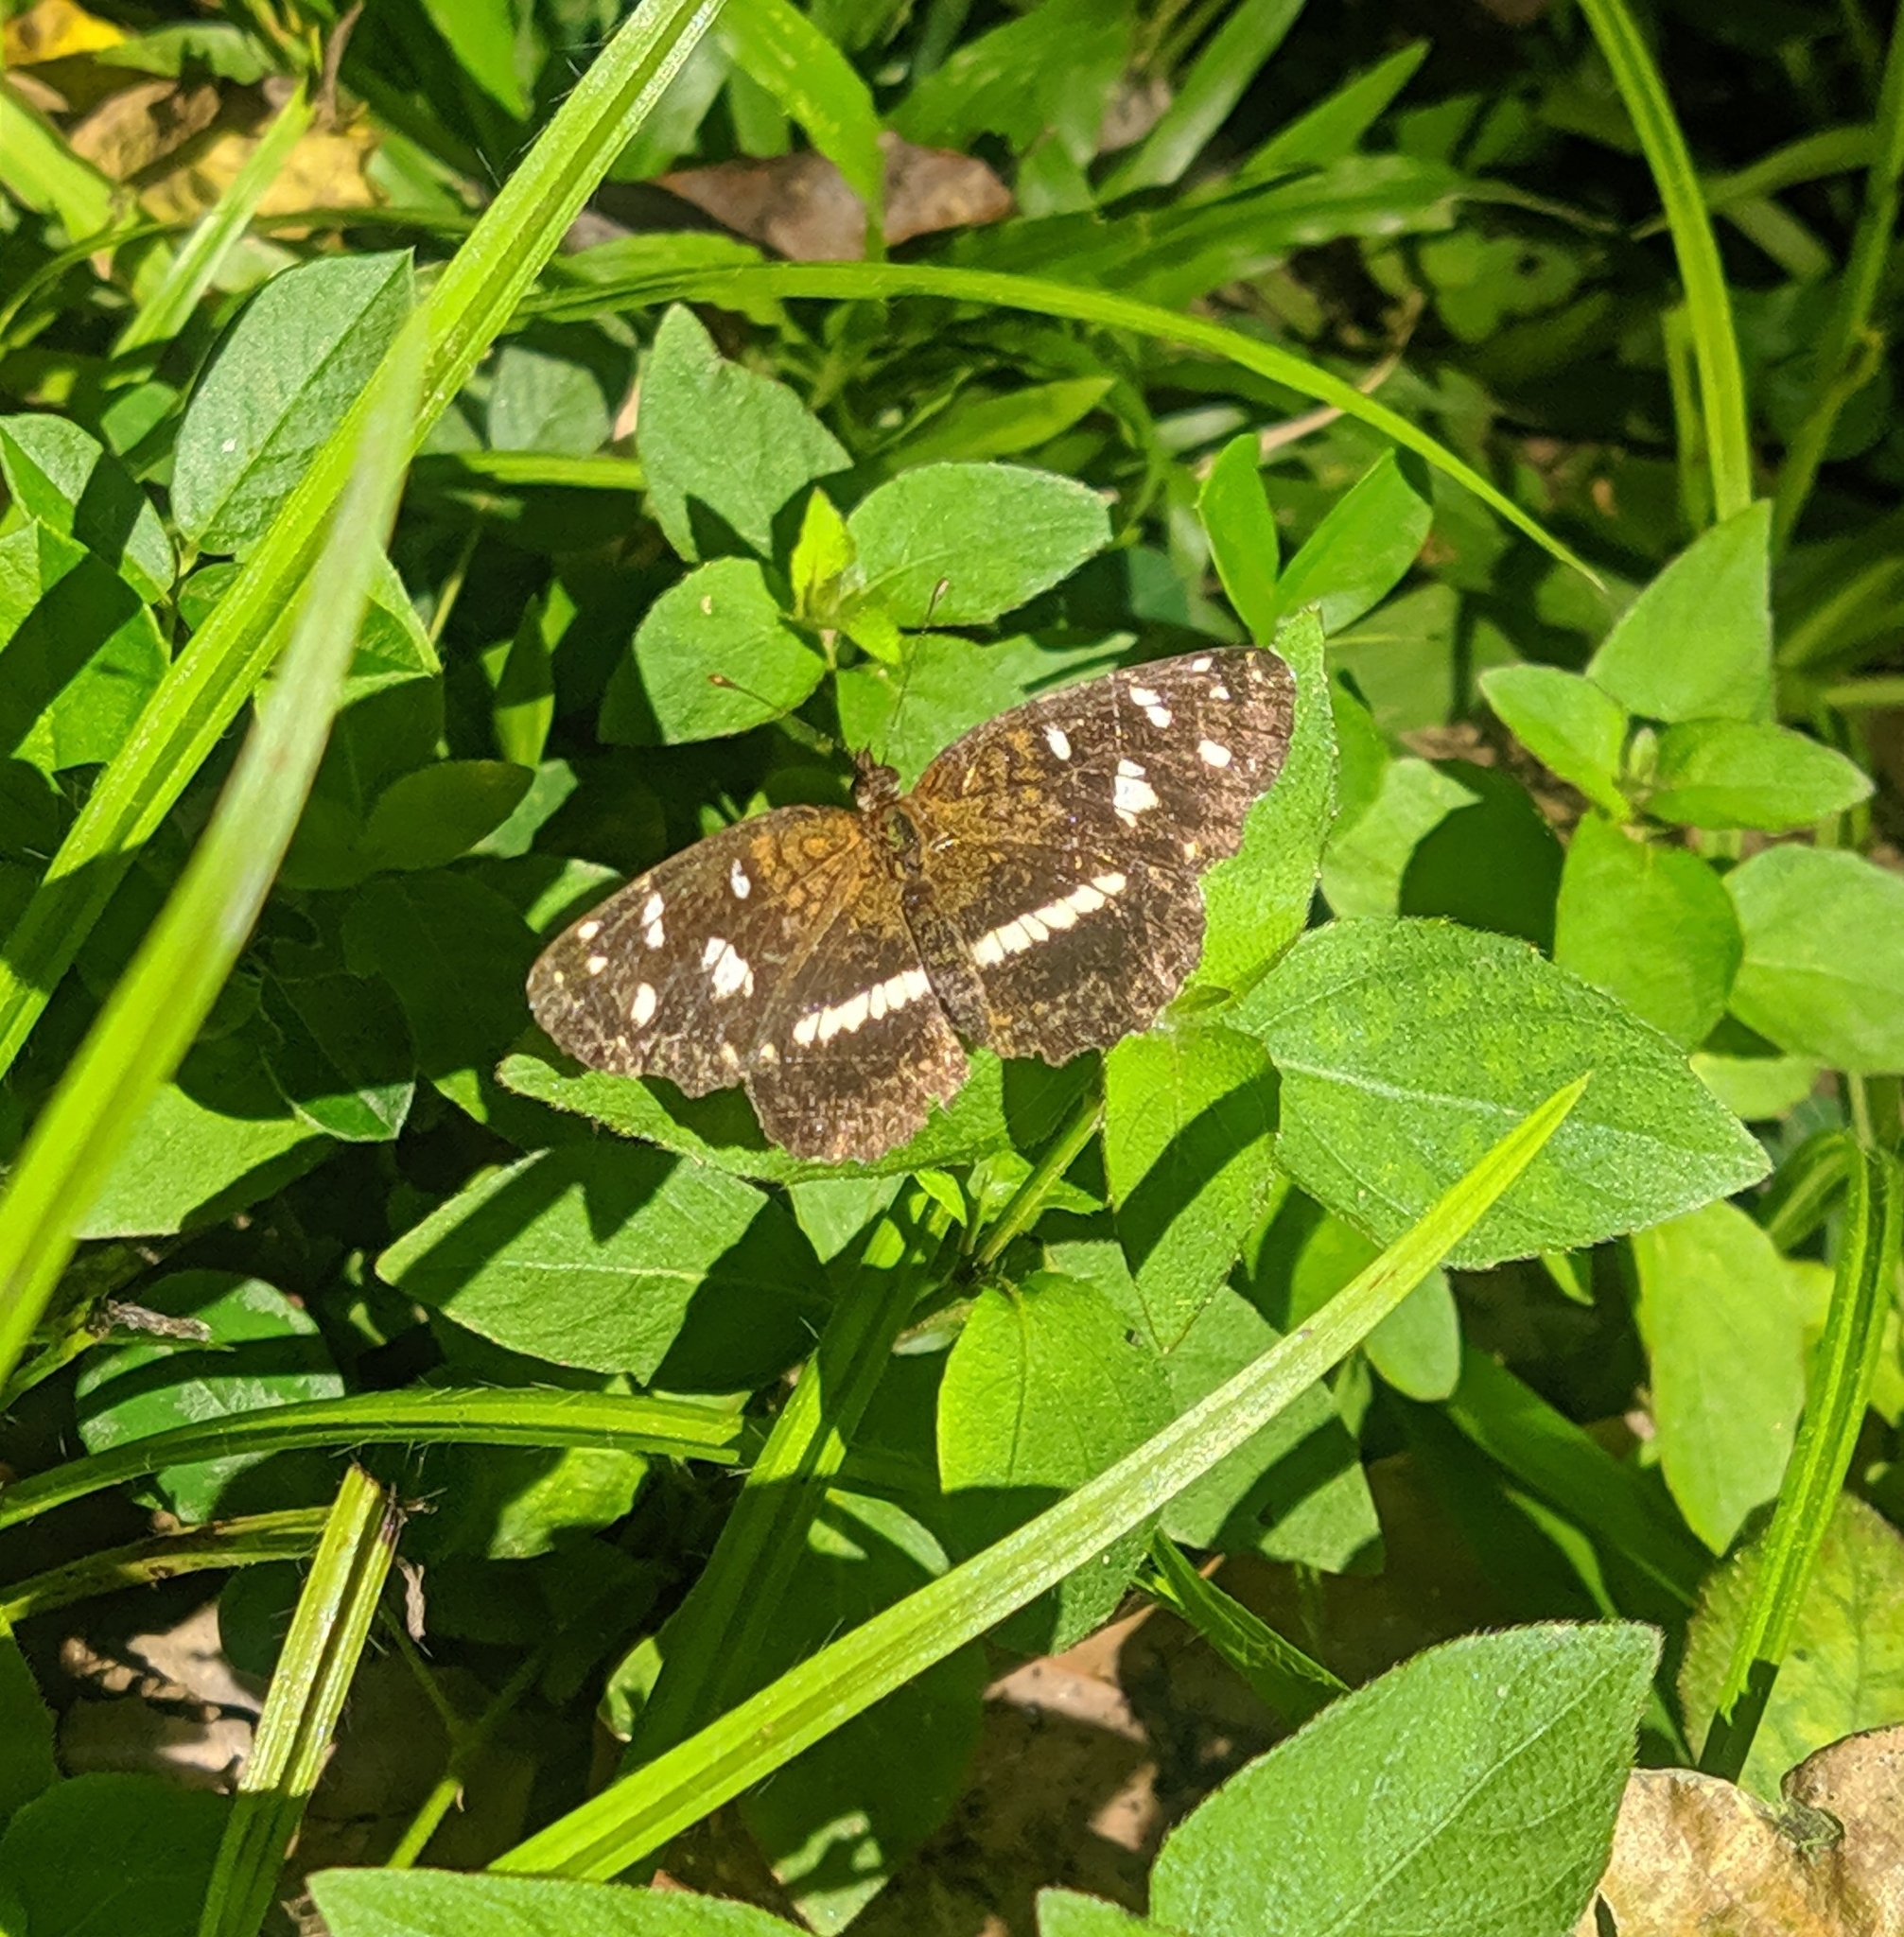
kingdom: Animalia
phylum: Arthropoda
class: Insecta
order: Lepidoptera
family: Nymphalidae
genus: Ortilia
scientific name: Ortilia ithra
